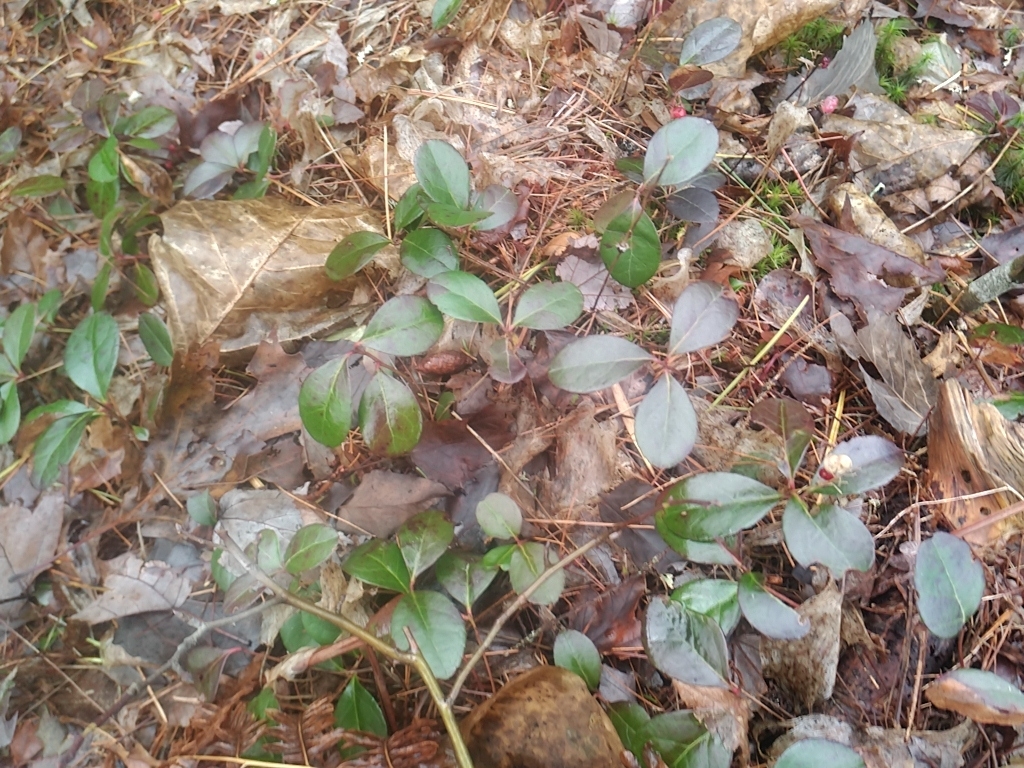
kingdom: Plantae
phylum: Tracheophyta
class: Magnoliopsida
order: Ericales
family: Ericaceae
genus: Gaultheria
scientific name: Gaultheria procumbens
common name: Checkerberry
